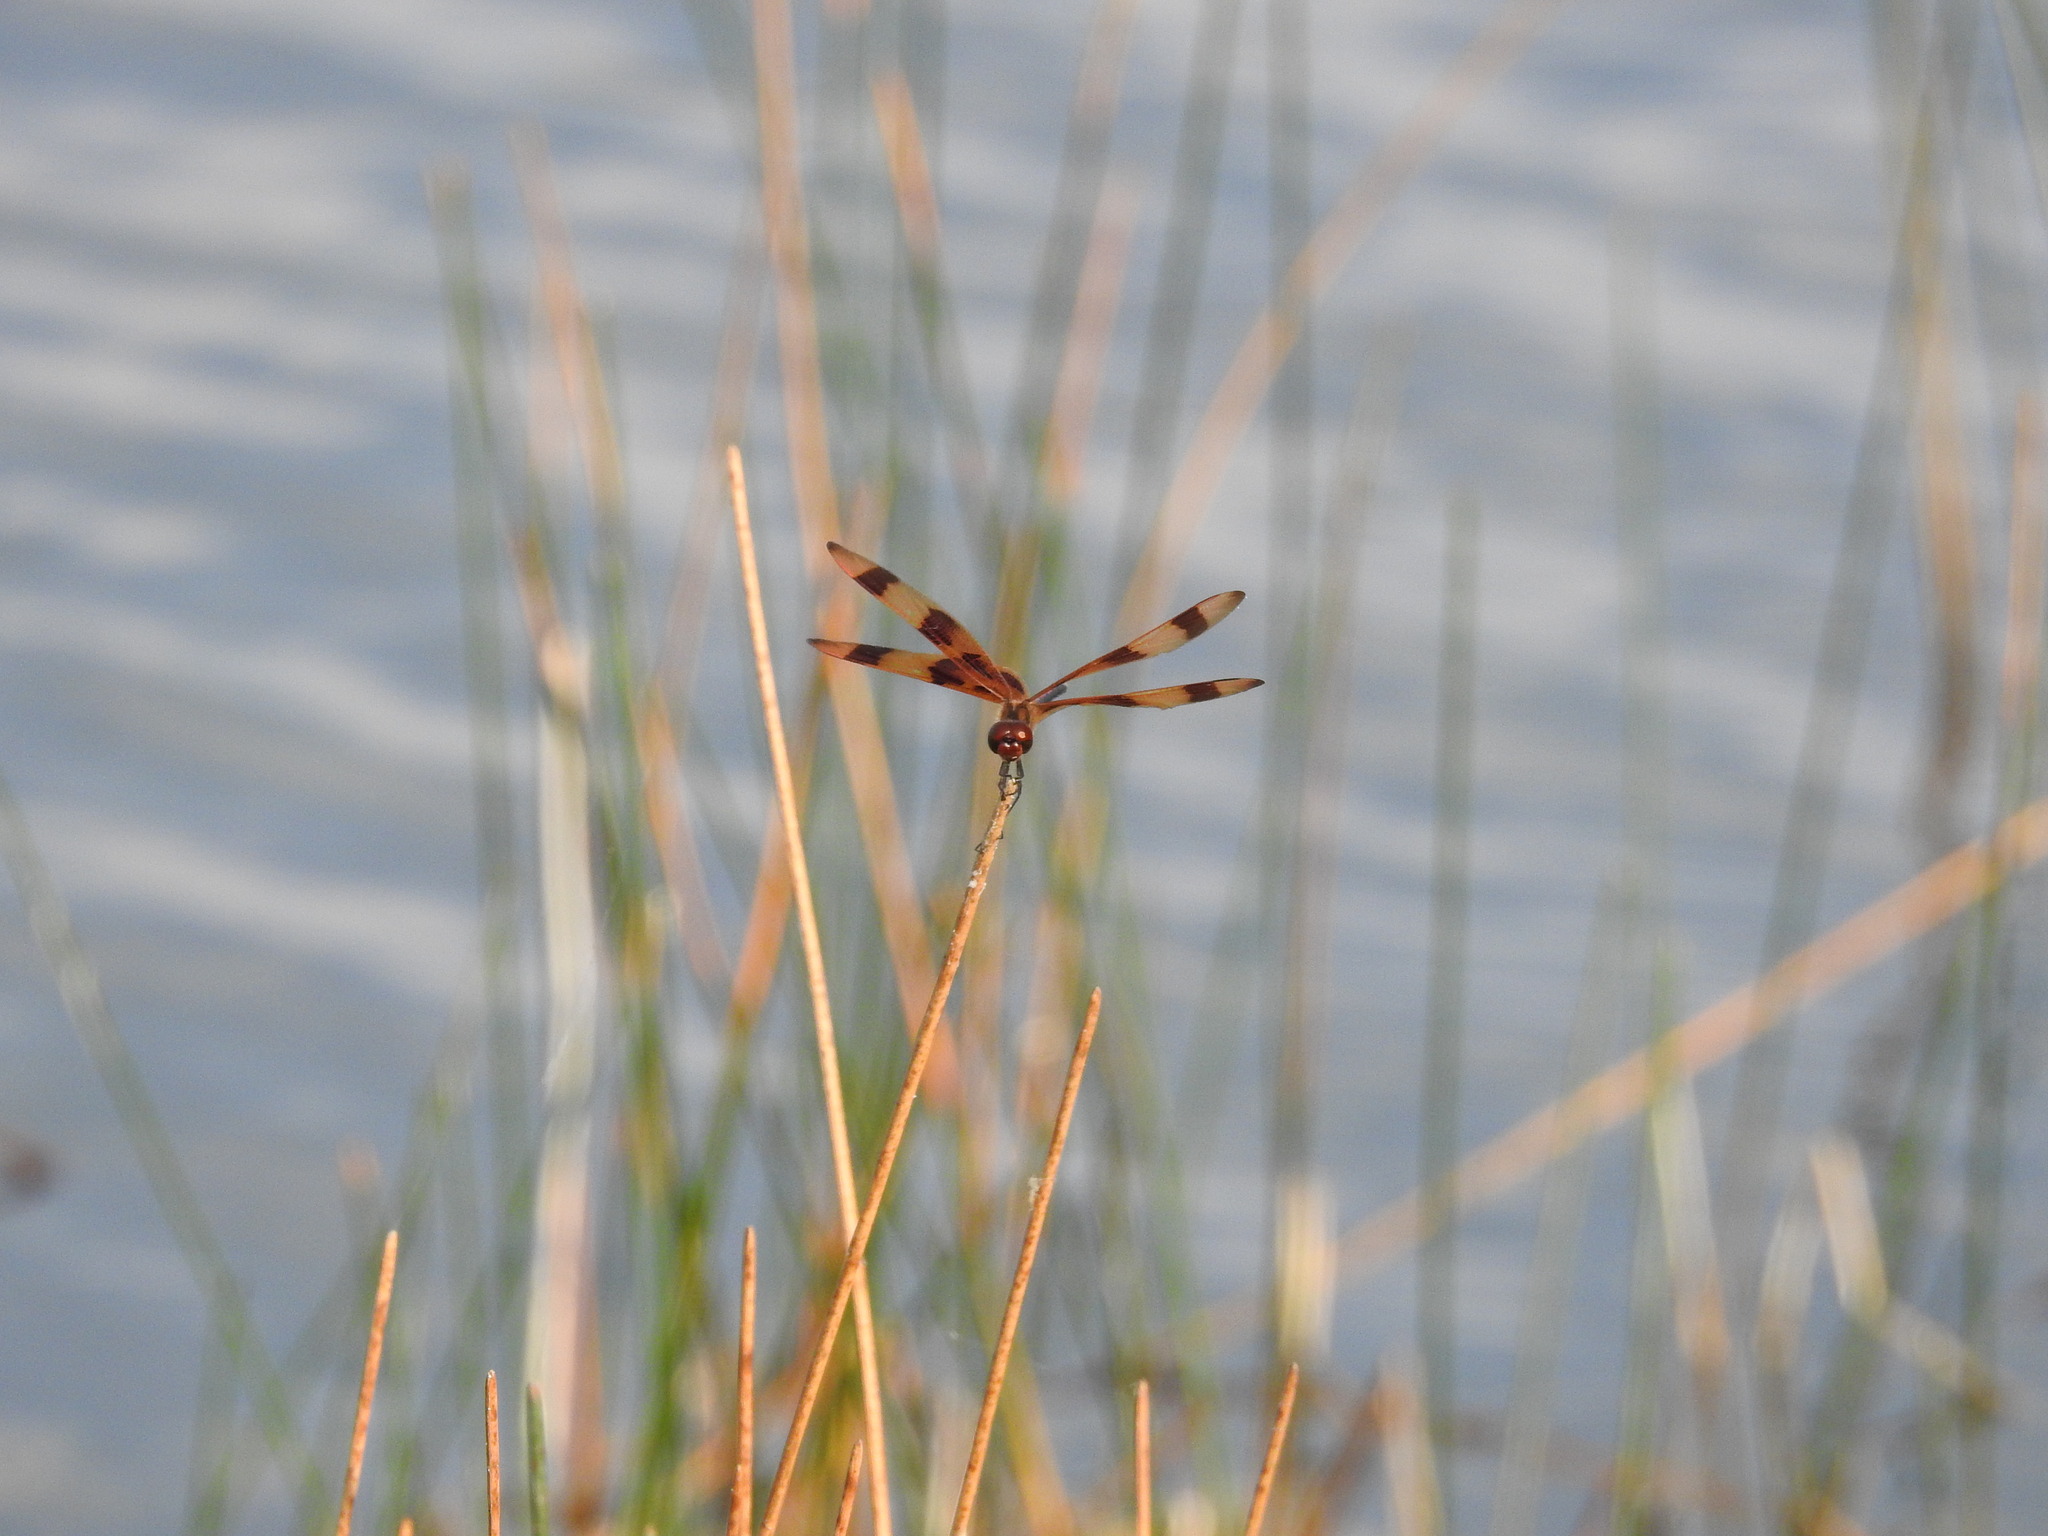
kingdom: Animalia
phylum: Arthropoda
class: Insecta
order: Odonata
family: Libellulidae
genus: Celithemis
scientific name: Celithemis eponina
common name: Halloween pennant
